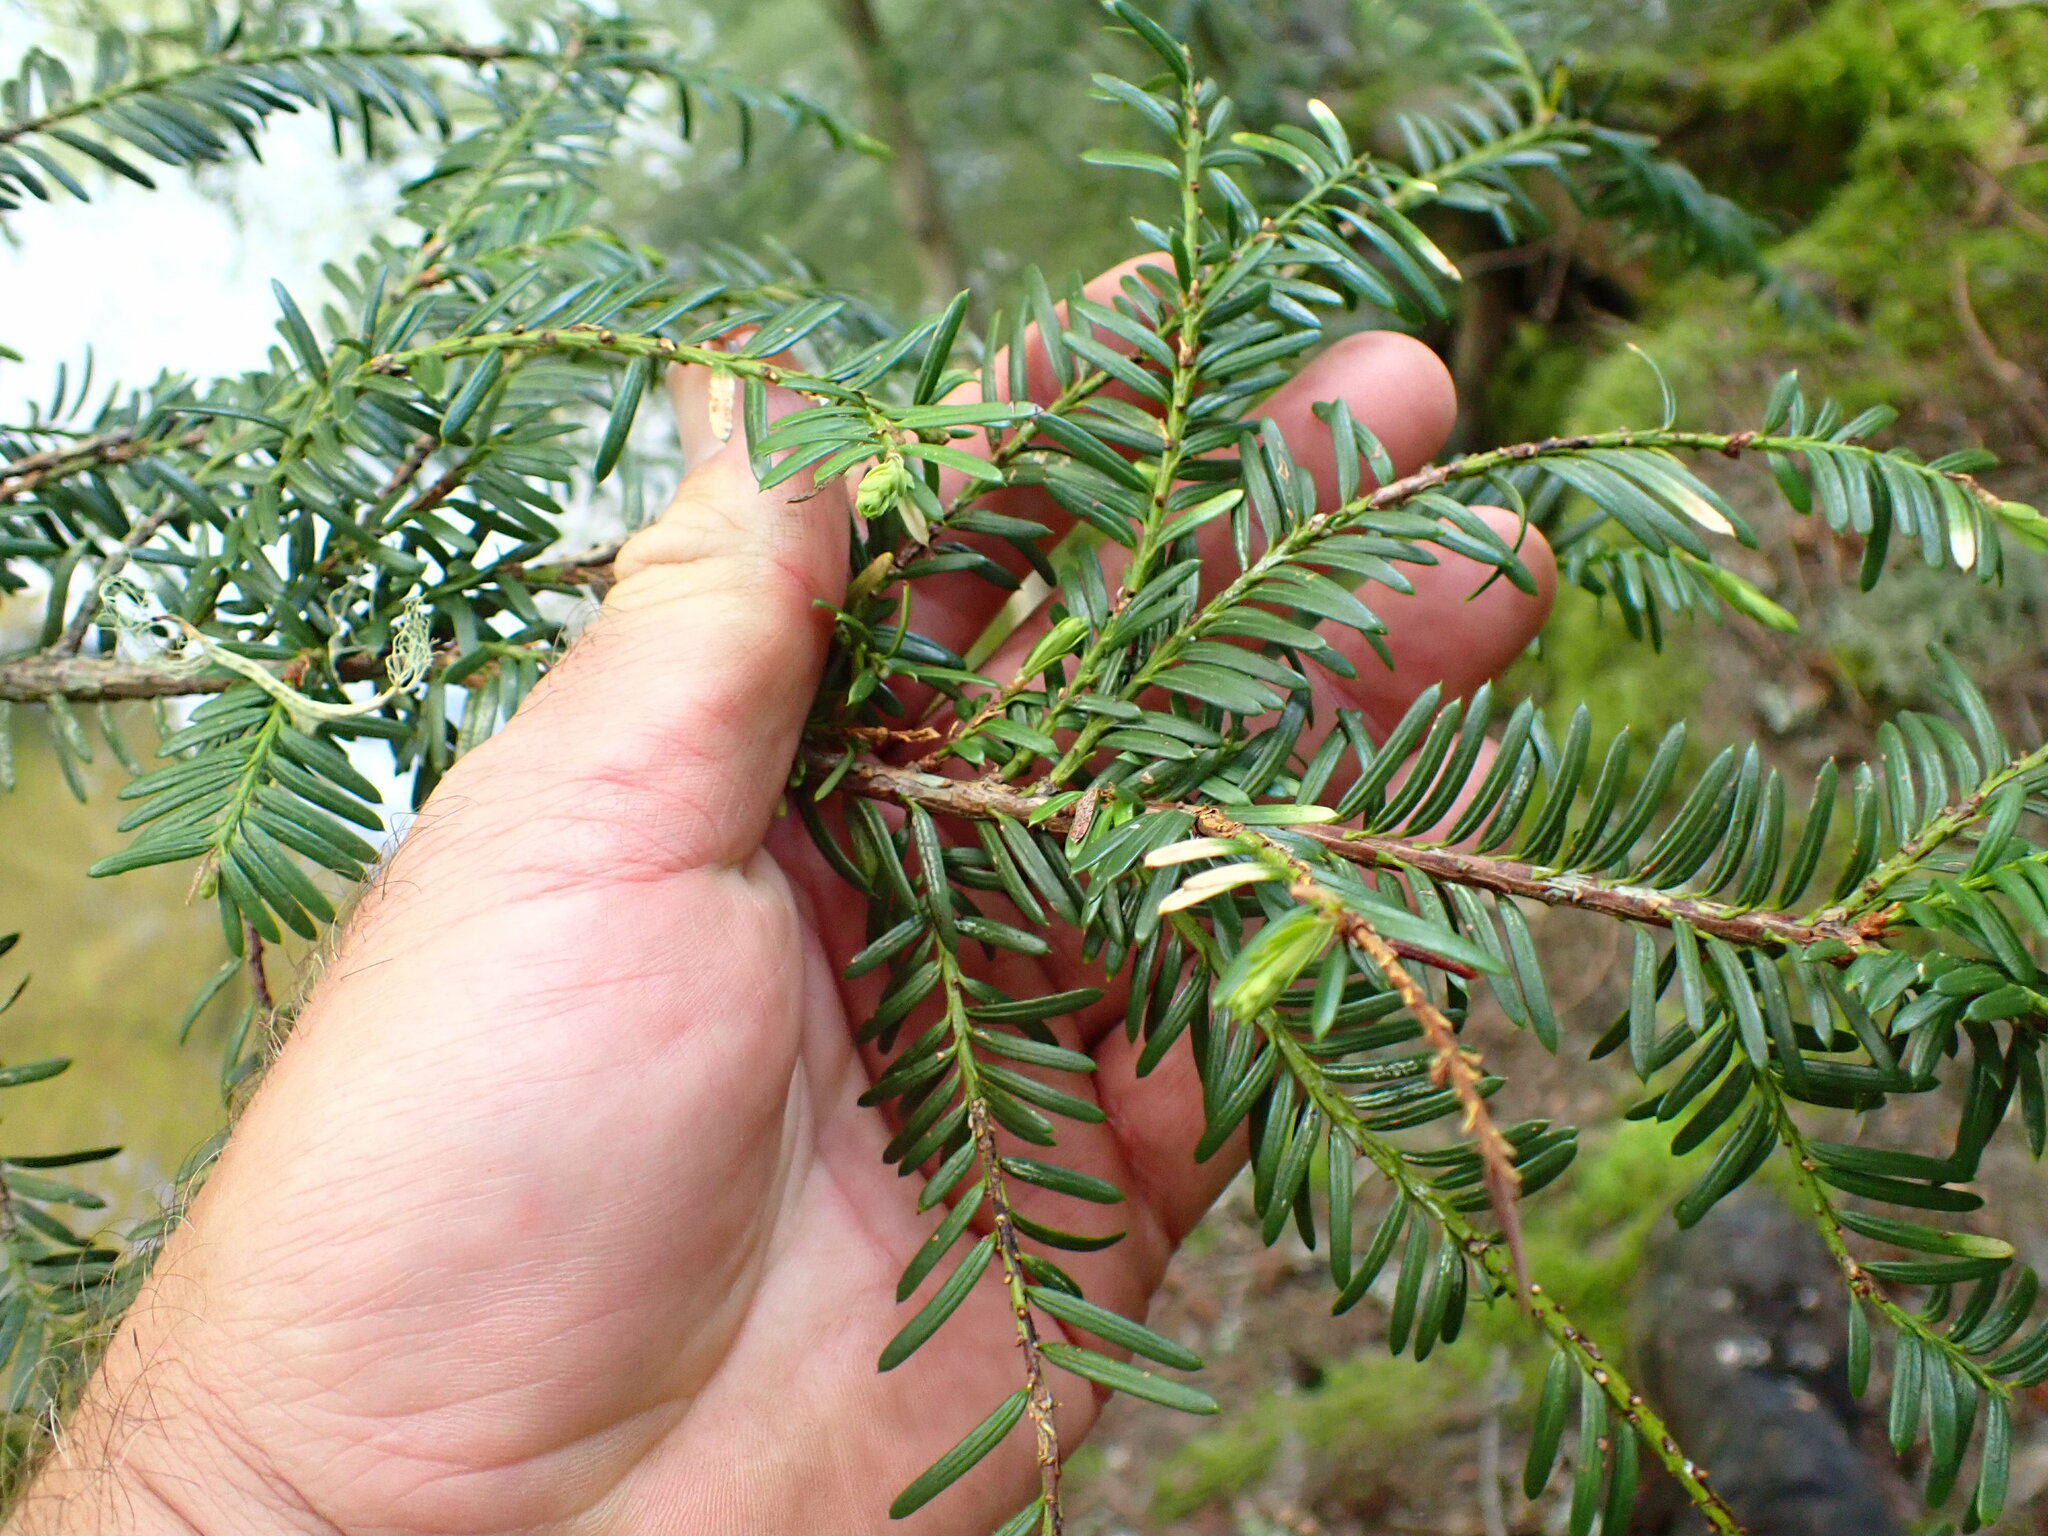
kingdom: Plantae
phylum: Tracheophyta
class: Pinopsida
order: Pinales
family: Taxaceae
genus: Taxus
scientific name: Taxus brevifolia
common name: Pacific yew
